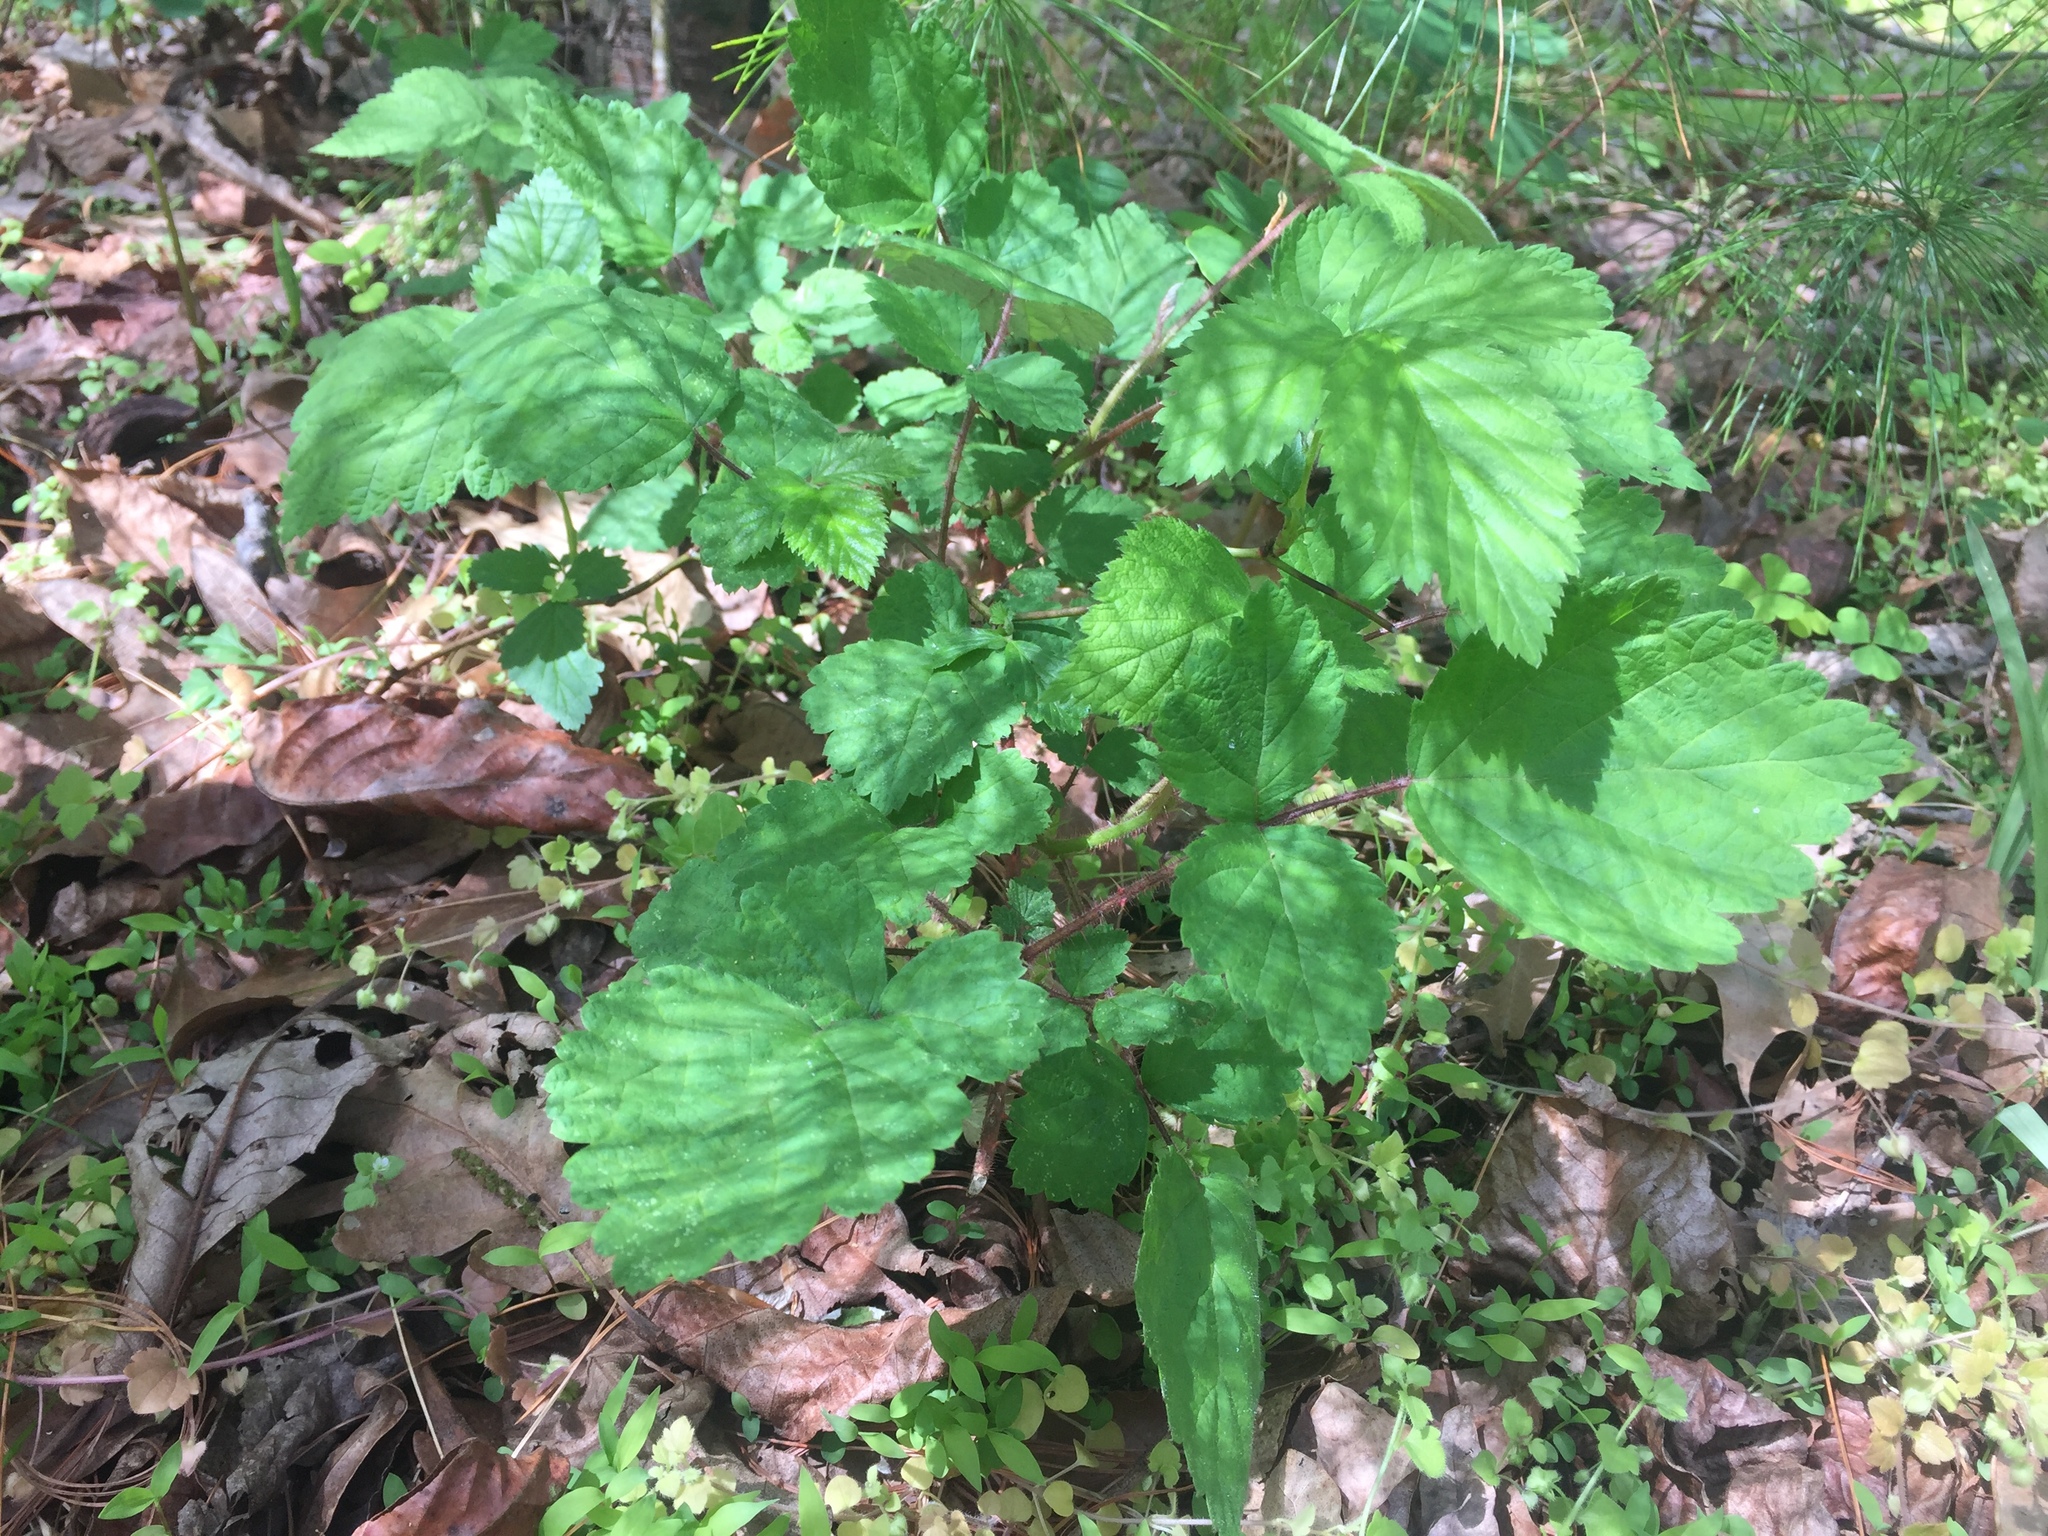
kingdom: Plantae
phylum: Tracheophyta
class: Magnoliopsida
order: Rosales
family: Rosaceae
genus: Rubus
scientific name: Rubus phoenicolasius
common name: Japanese wineberry
